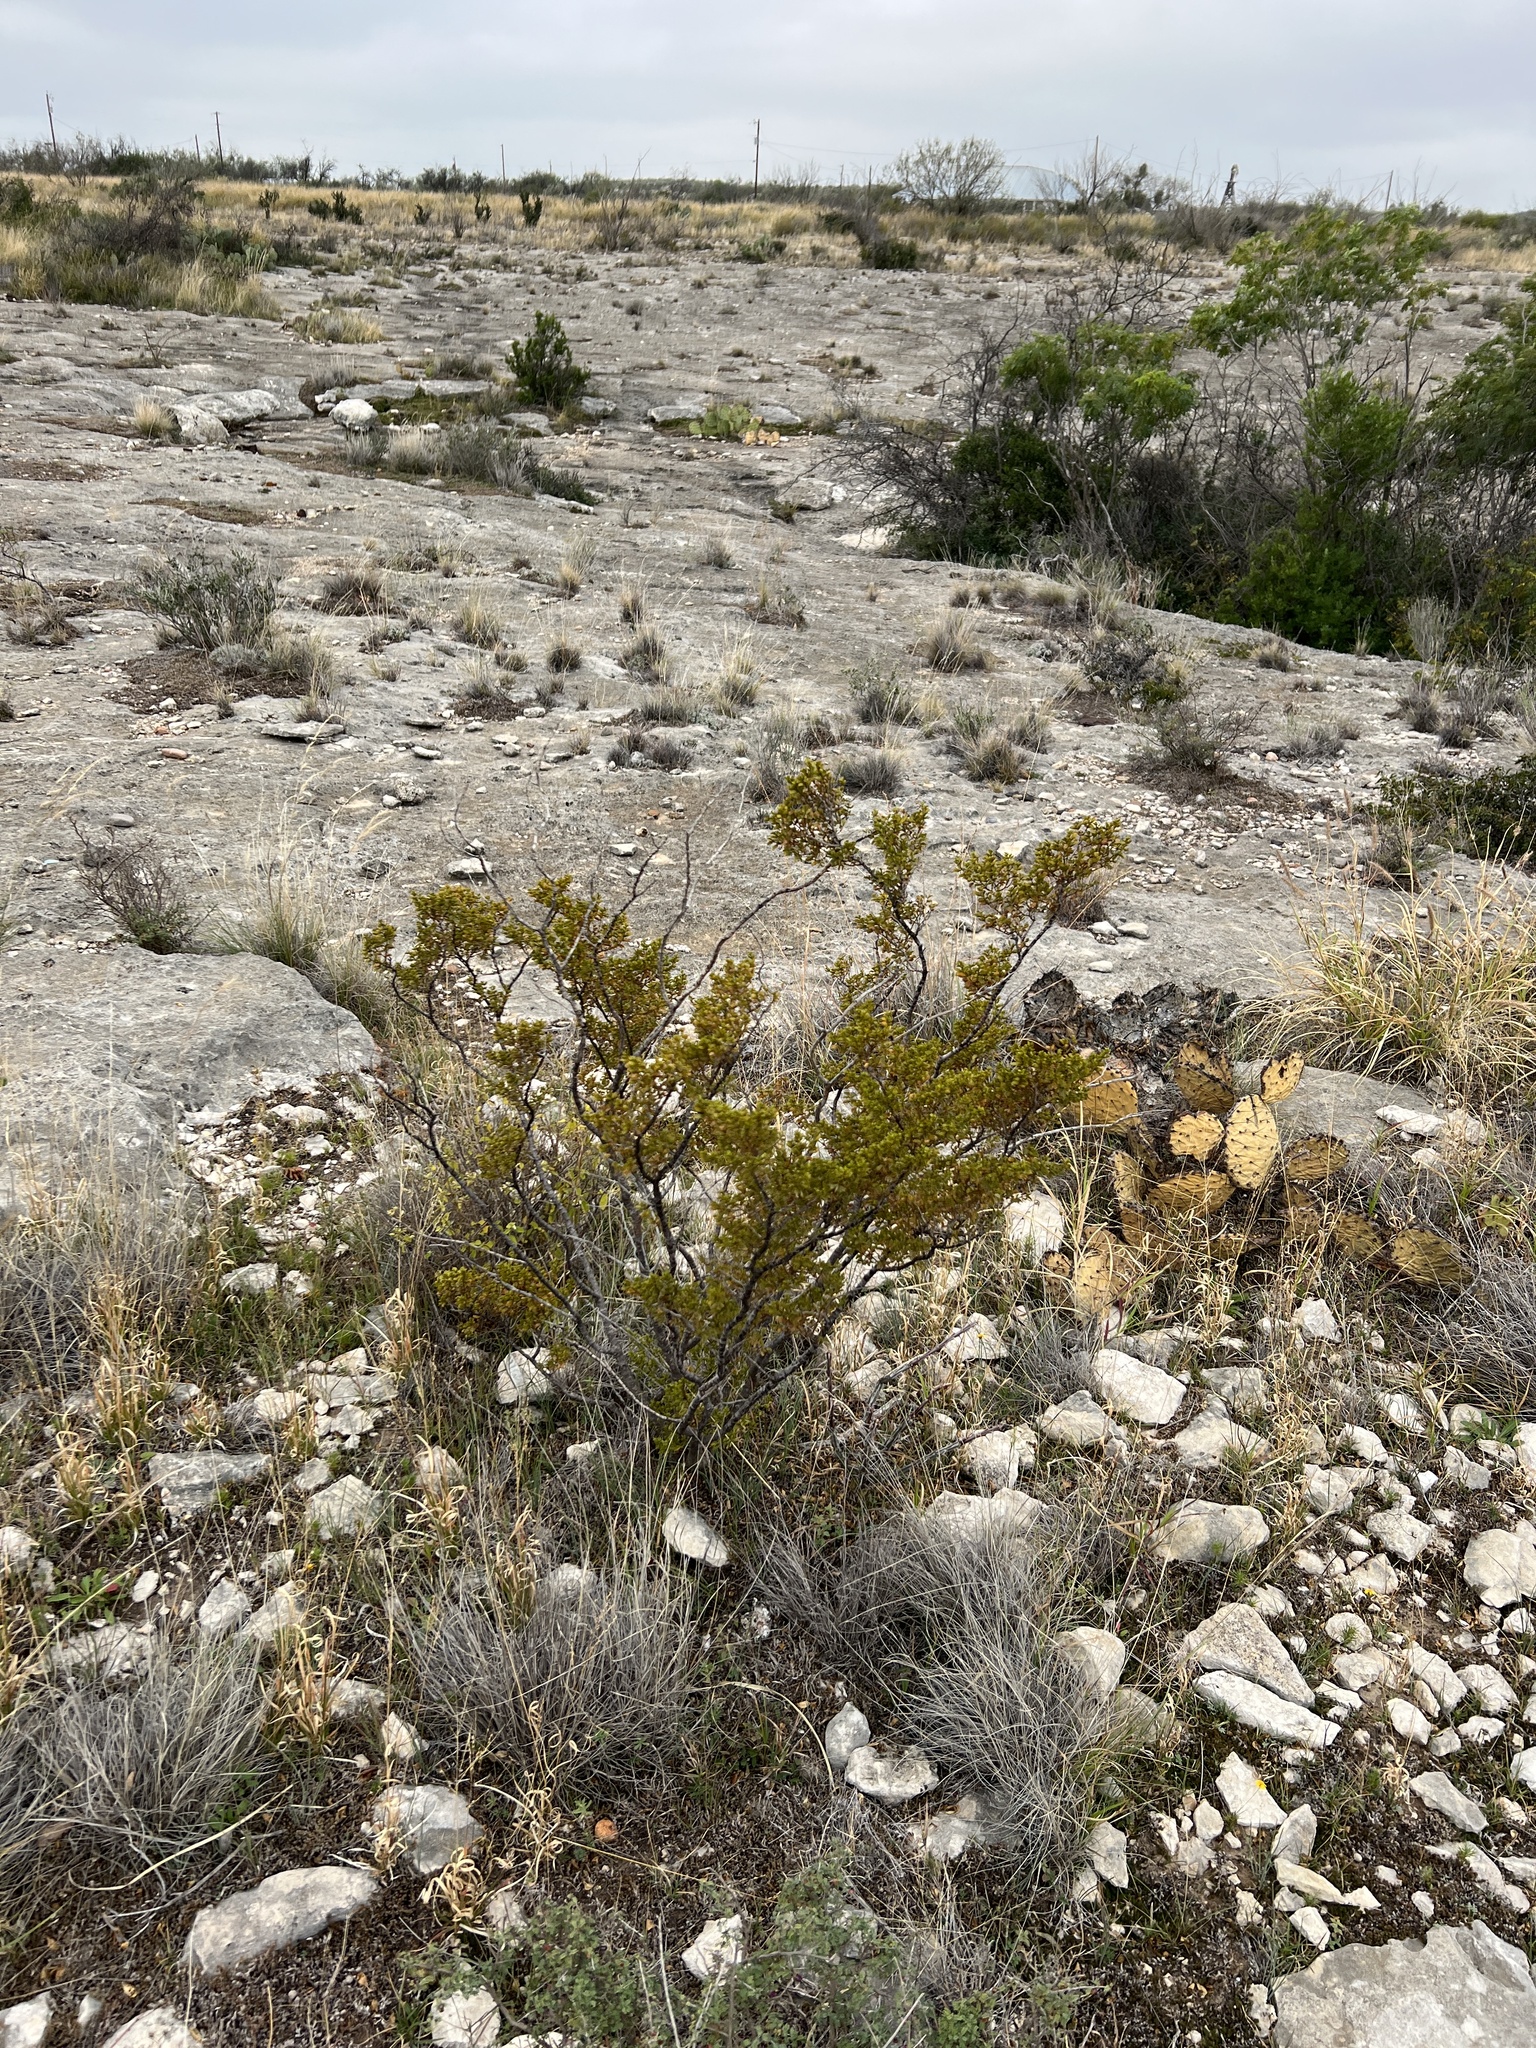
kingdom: Plantae
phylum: Tracheophyta
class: Magnoliopsida
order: Zygophyllales
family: Zygophyllaceae
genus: Larrea
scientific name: Larrea tridentata
